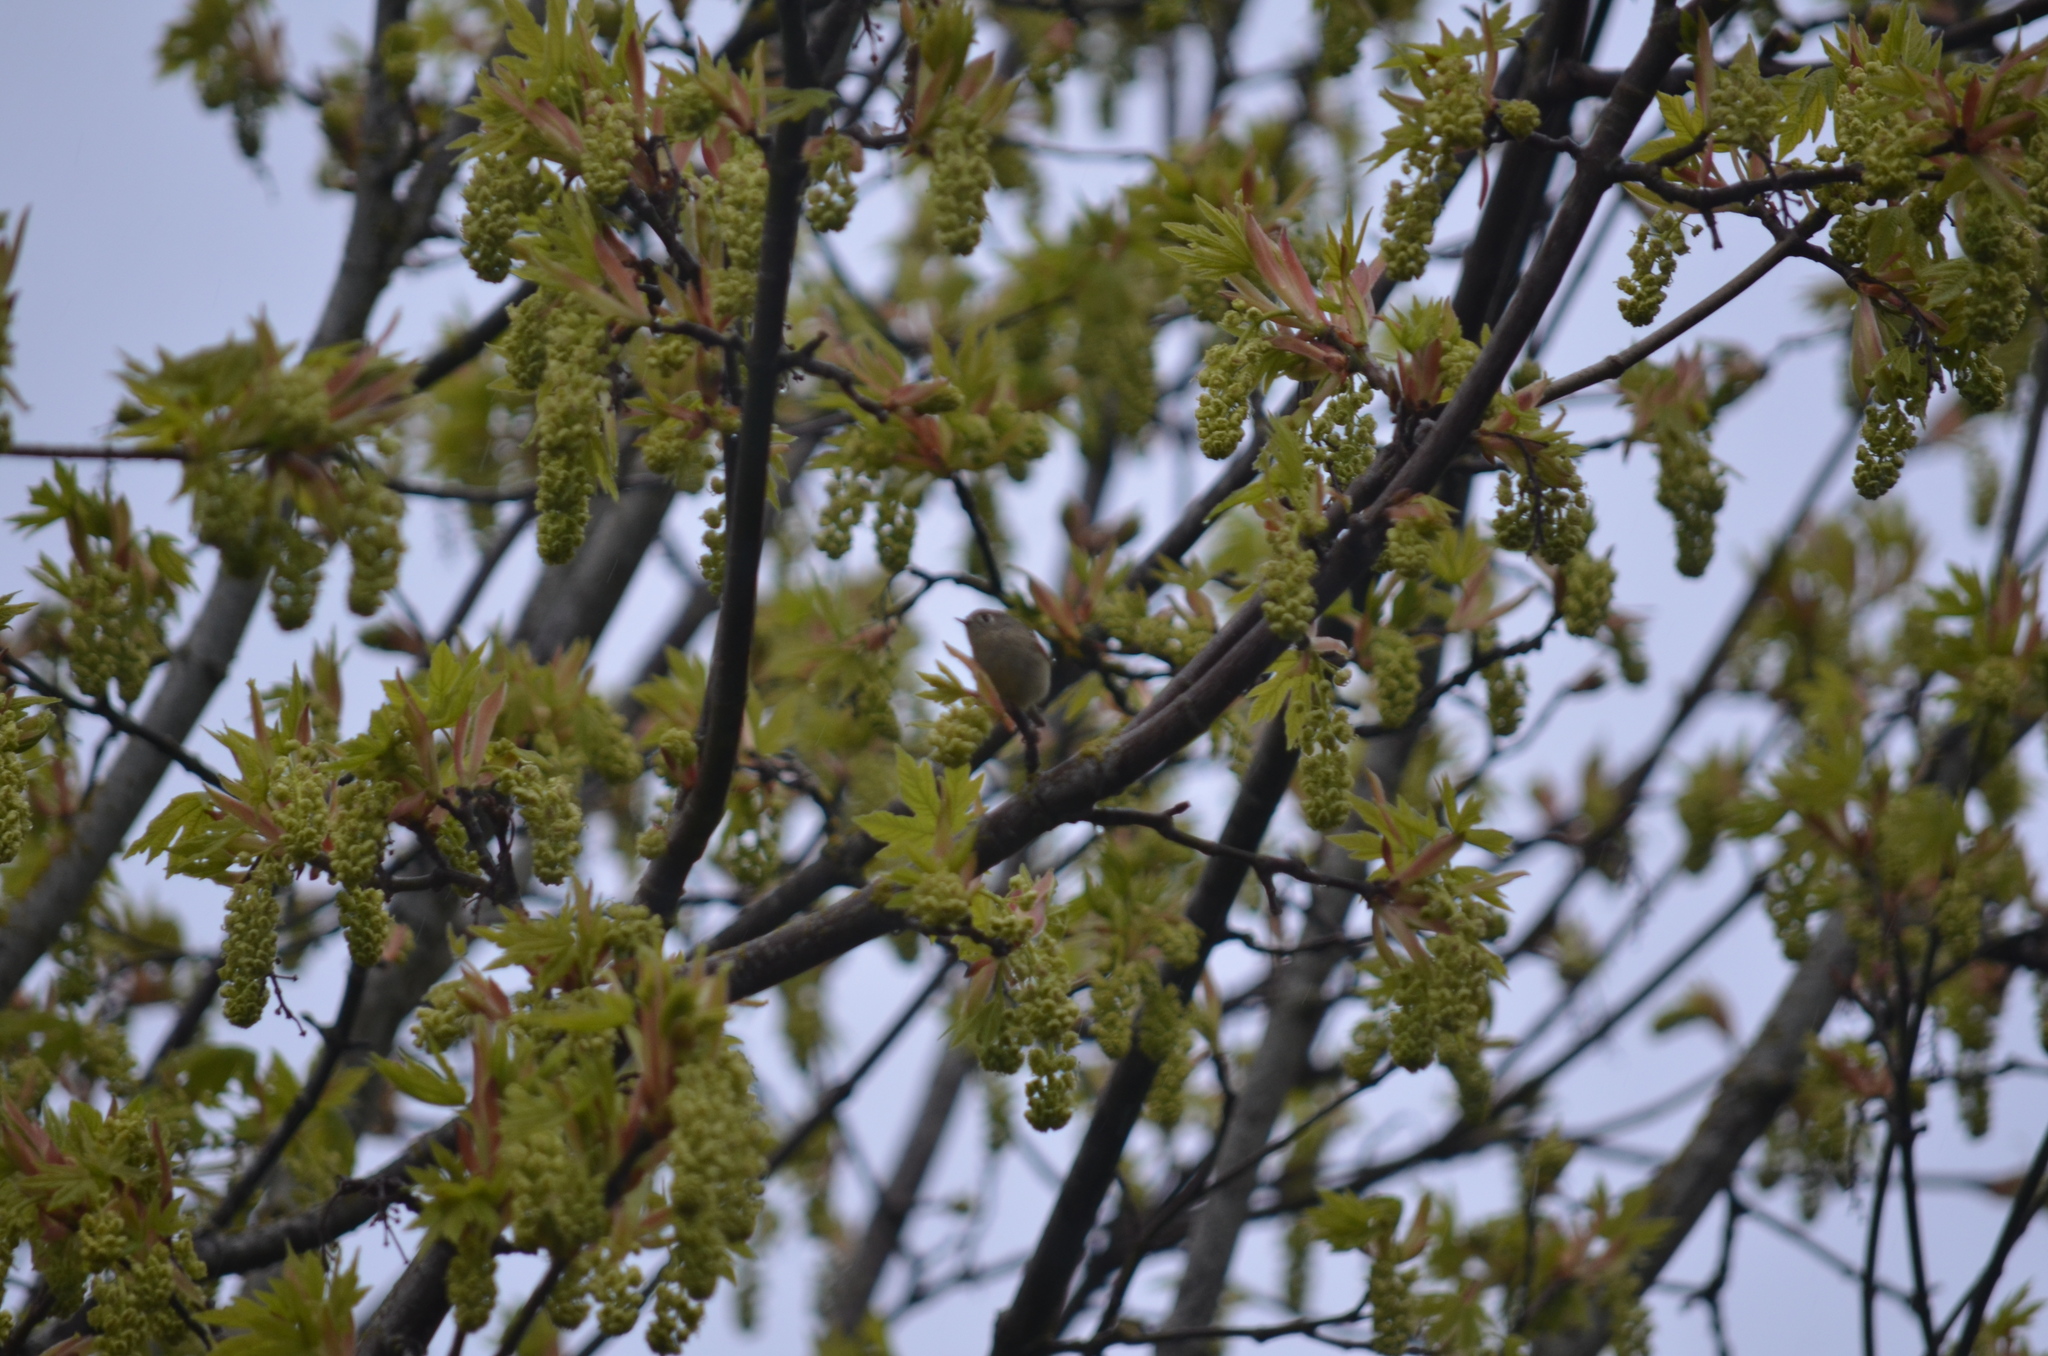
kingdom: Animalia
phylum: Chordata
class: Aves
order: Passeriformes
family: Regulidae
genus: Regulus
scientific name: Regulus calendula
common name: Ruby-crowned kinglet
